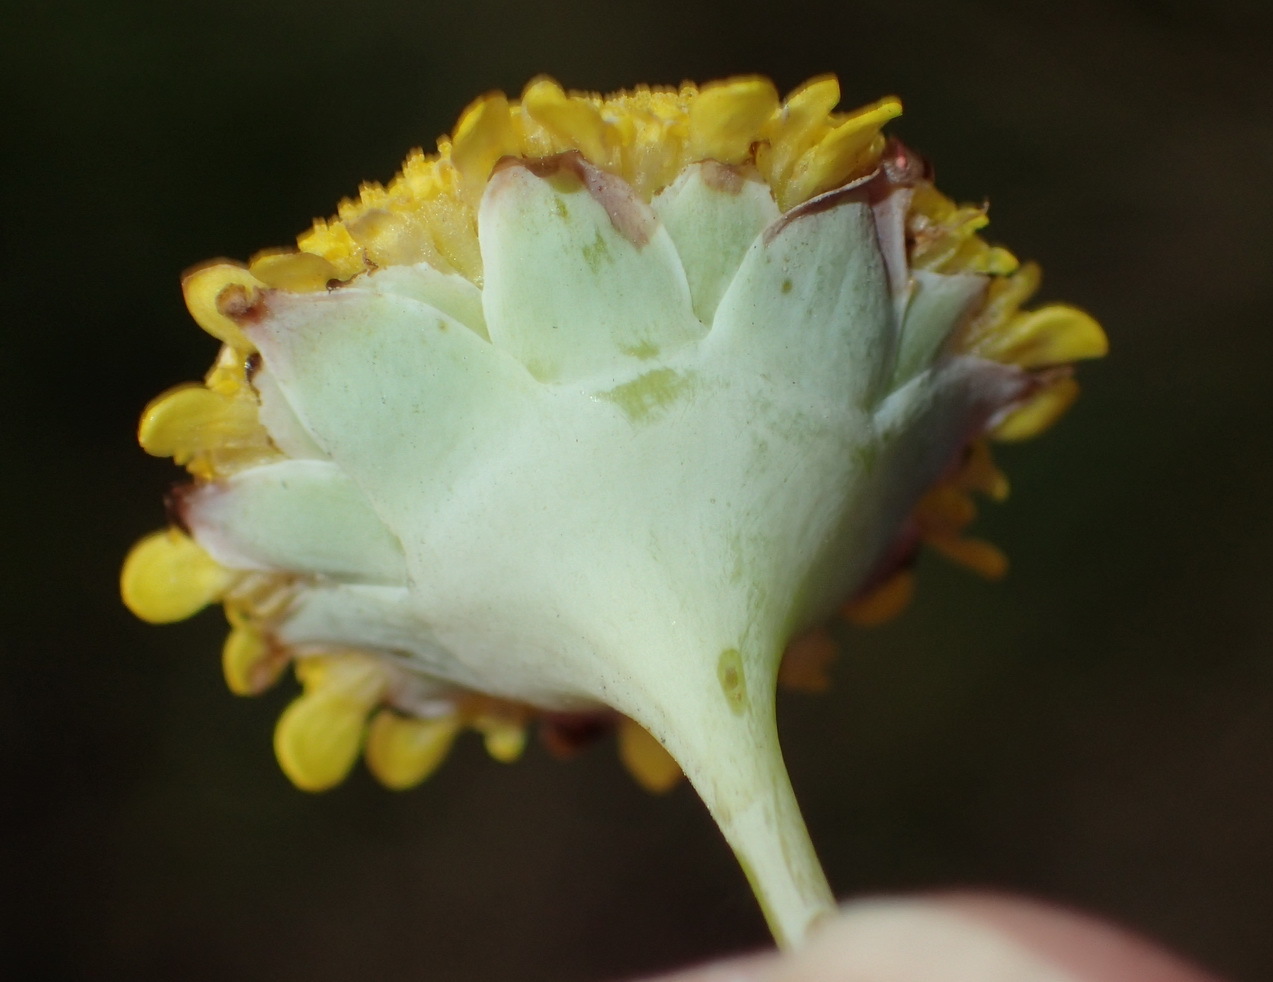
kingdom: Plantae
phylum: Tracheophyta
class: Magnoliopsida
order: Asterales
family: Asteraceae
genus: Cotula
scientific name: Cotula discolor
